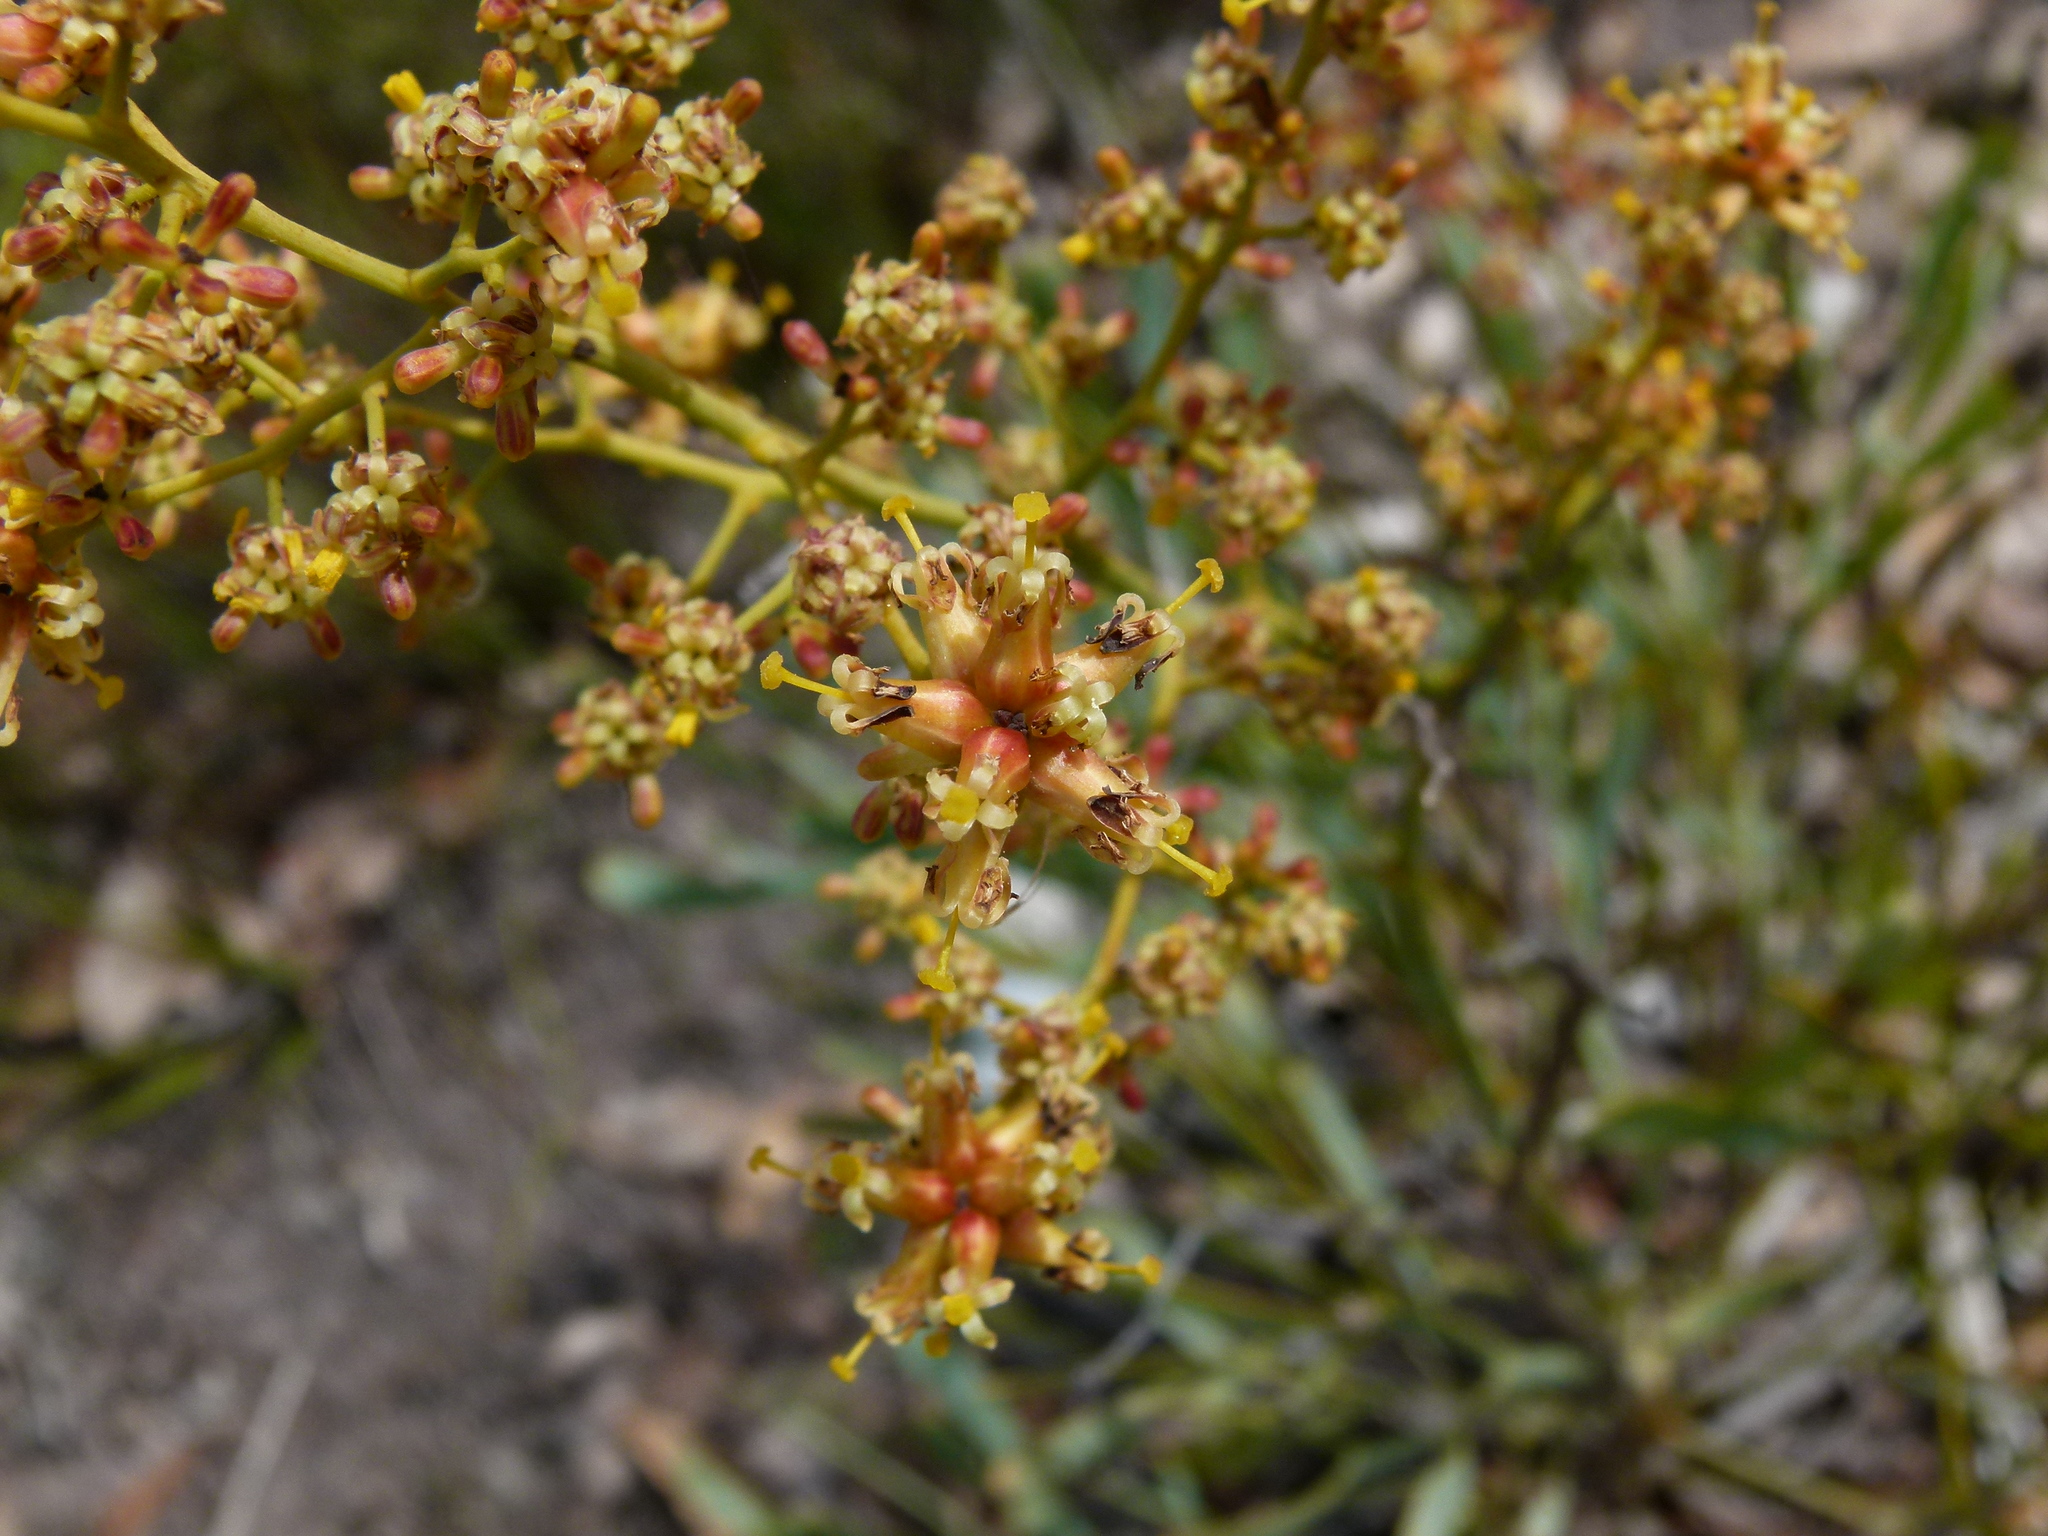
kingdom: Plantae
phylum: Tracheophyta
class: Magnoliopsida
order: Proteales
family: Proteaceae
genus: Stirlingia
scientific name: Stirlingia latifolia
